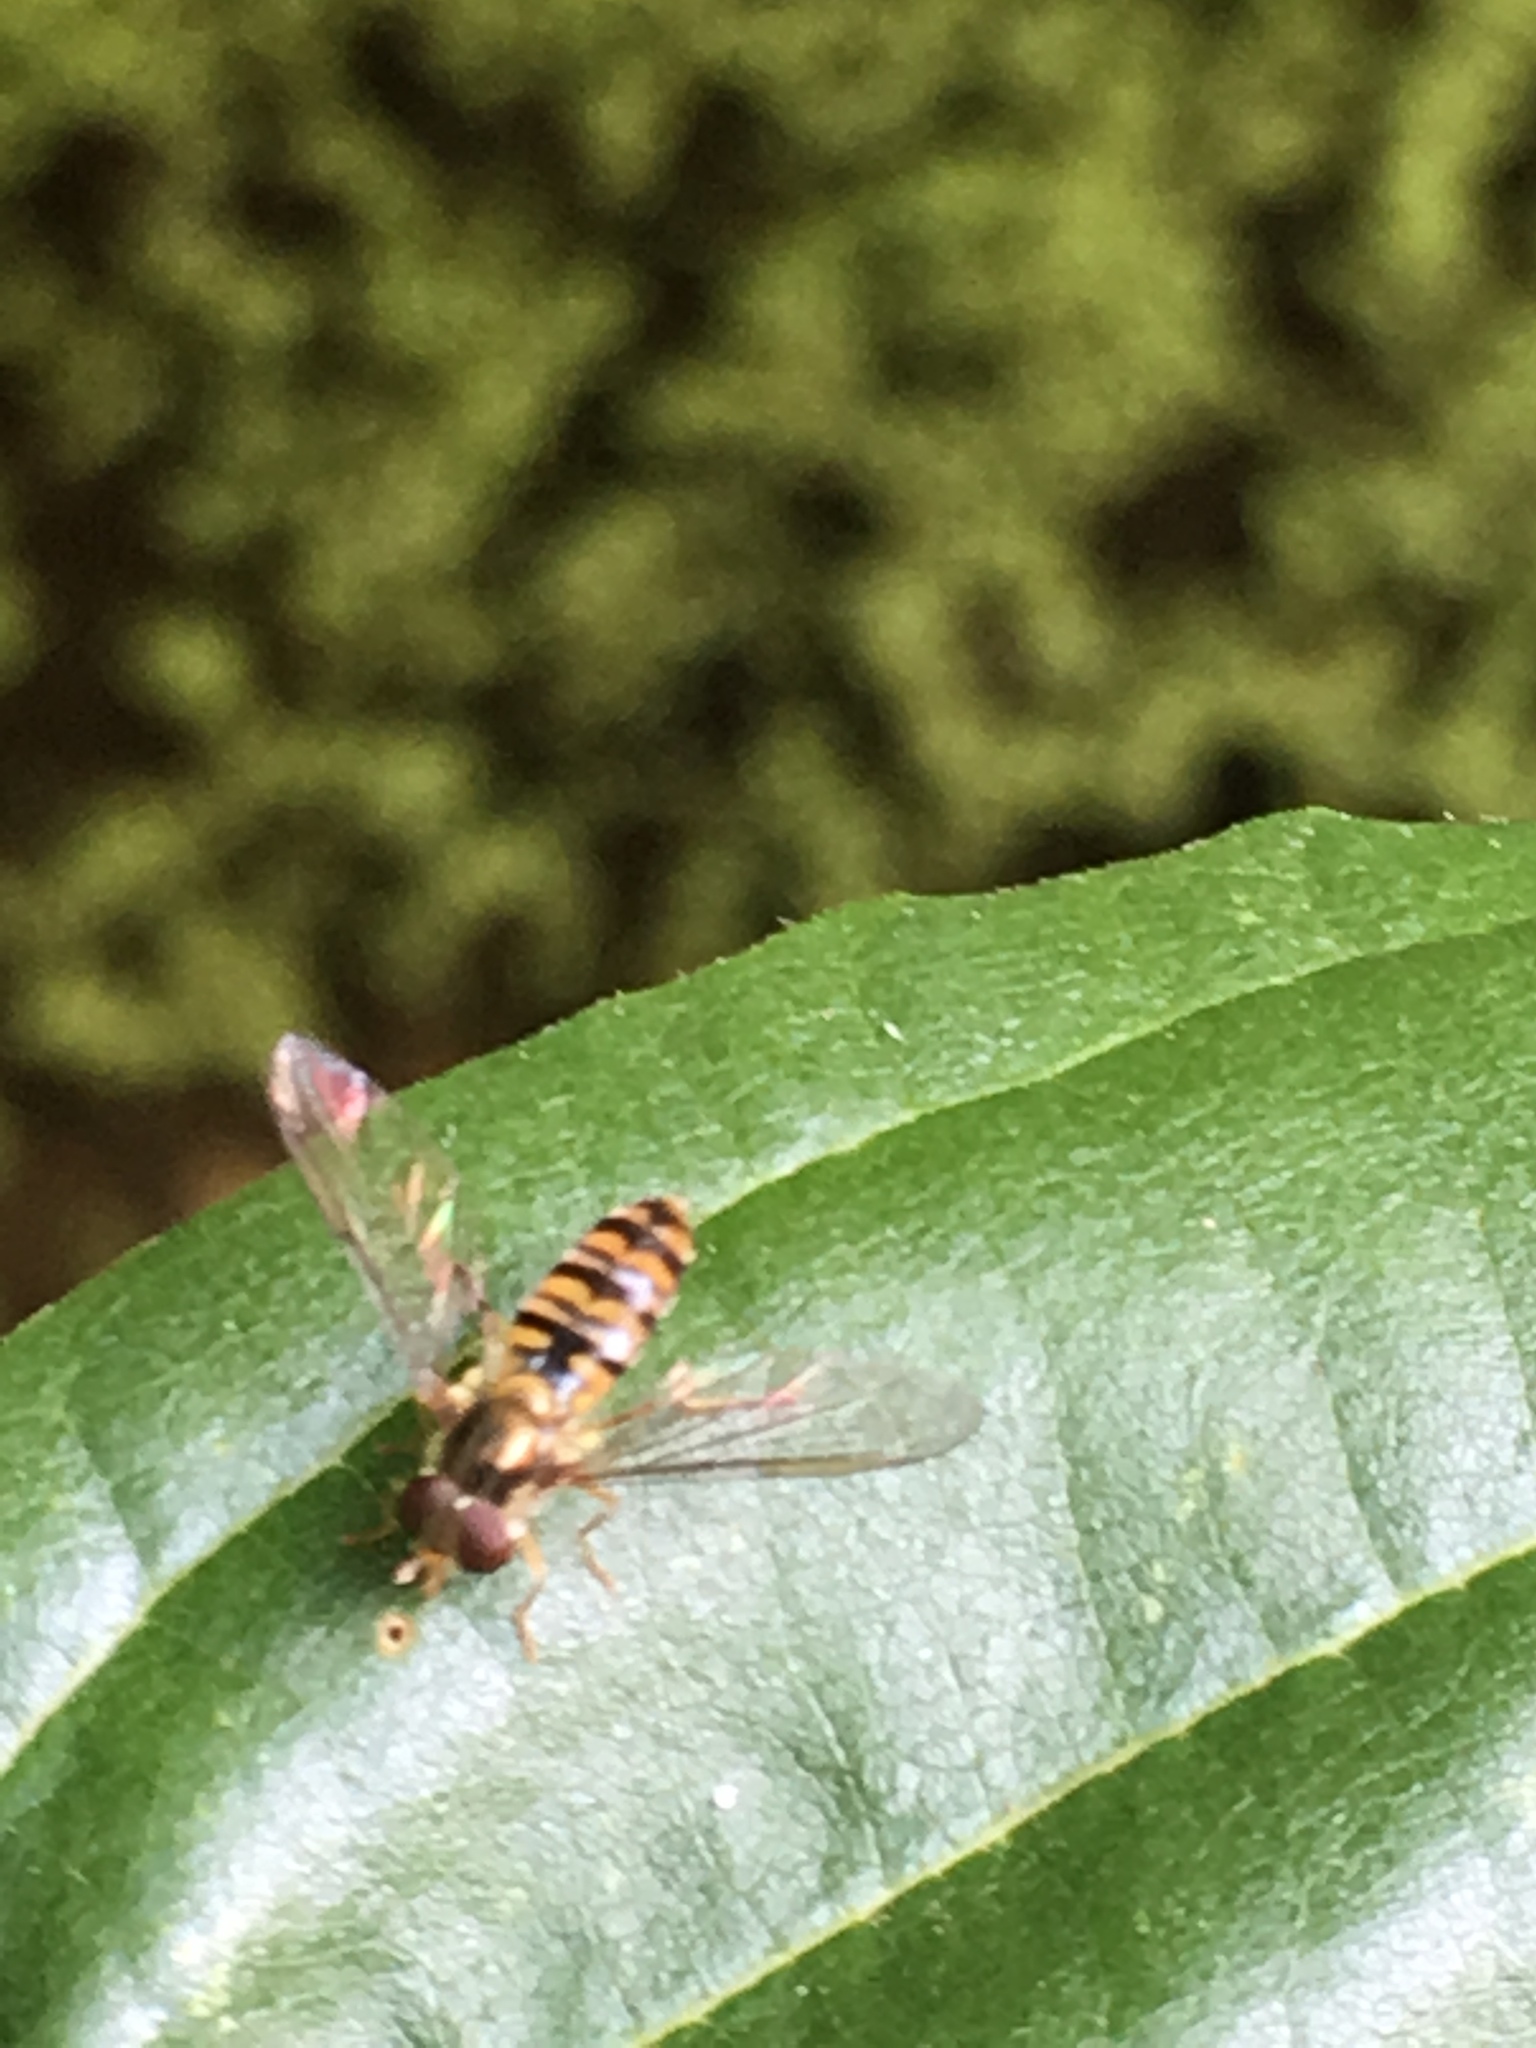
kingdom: Animalia
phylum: Arthropoda
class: Insecta
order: Diptera
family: Syrphidae
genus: Episyrphus
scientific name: Episyrphus balteatus
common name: Marmalade hoverfly
